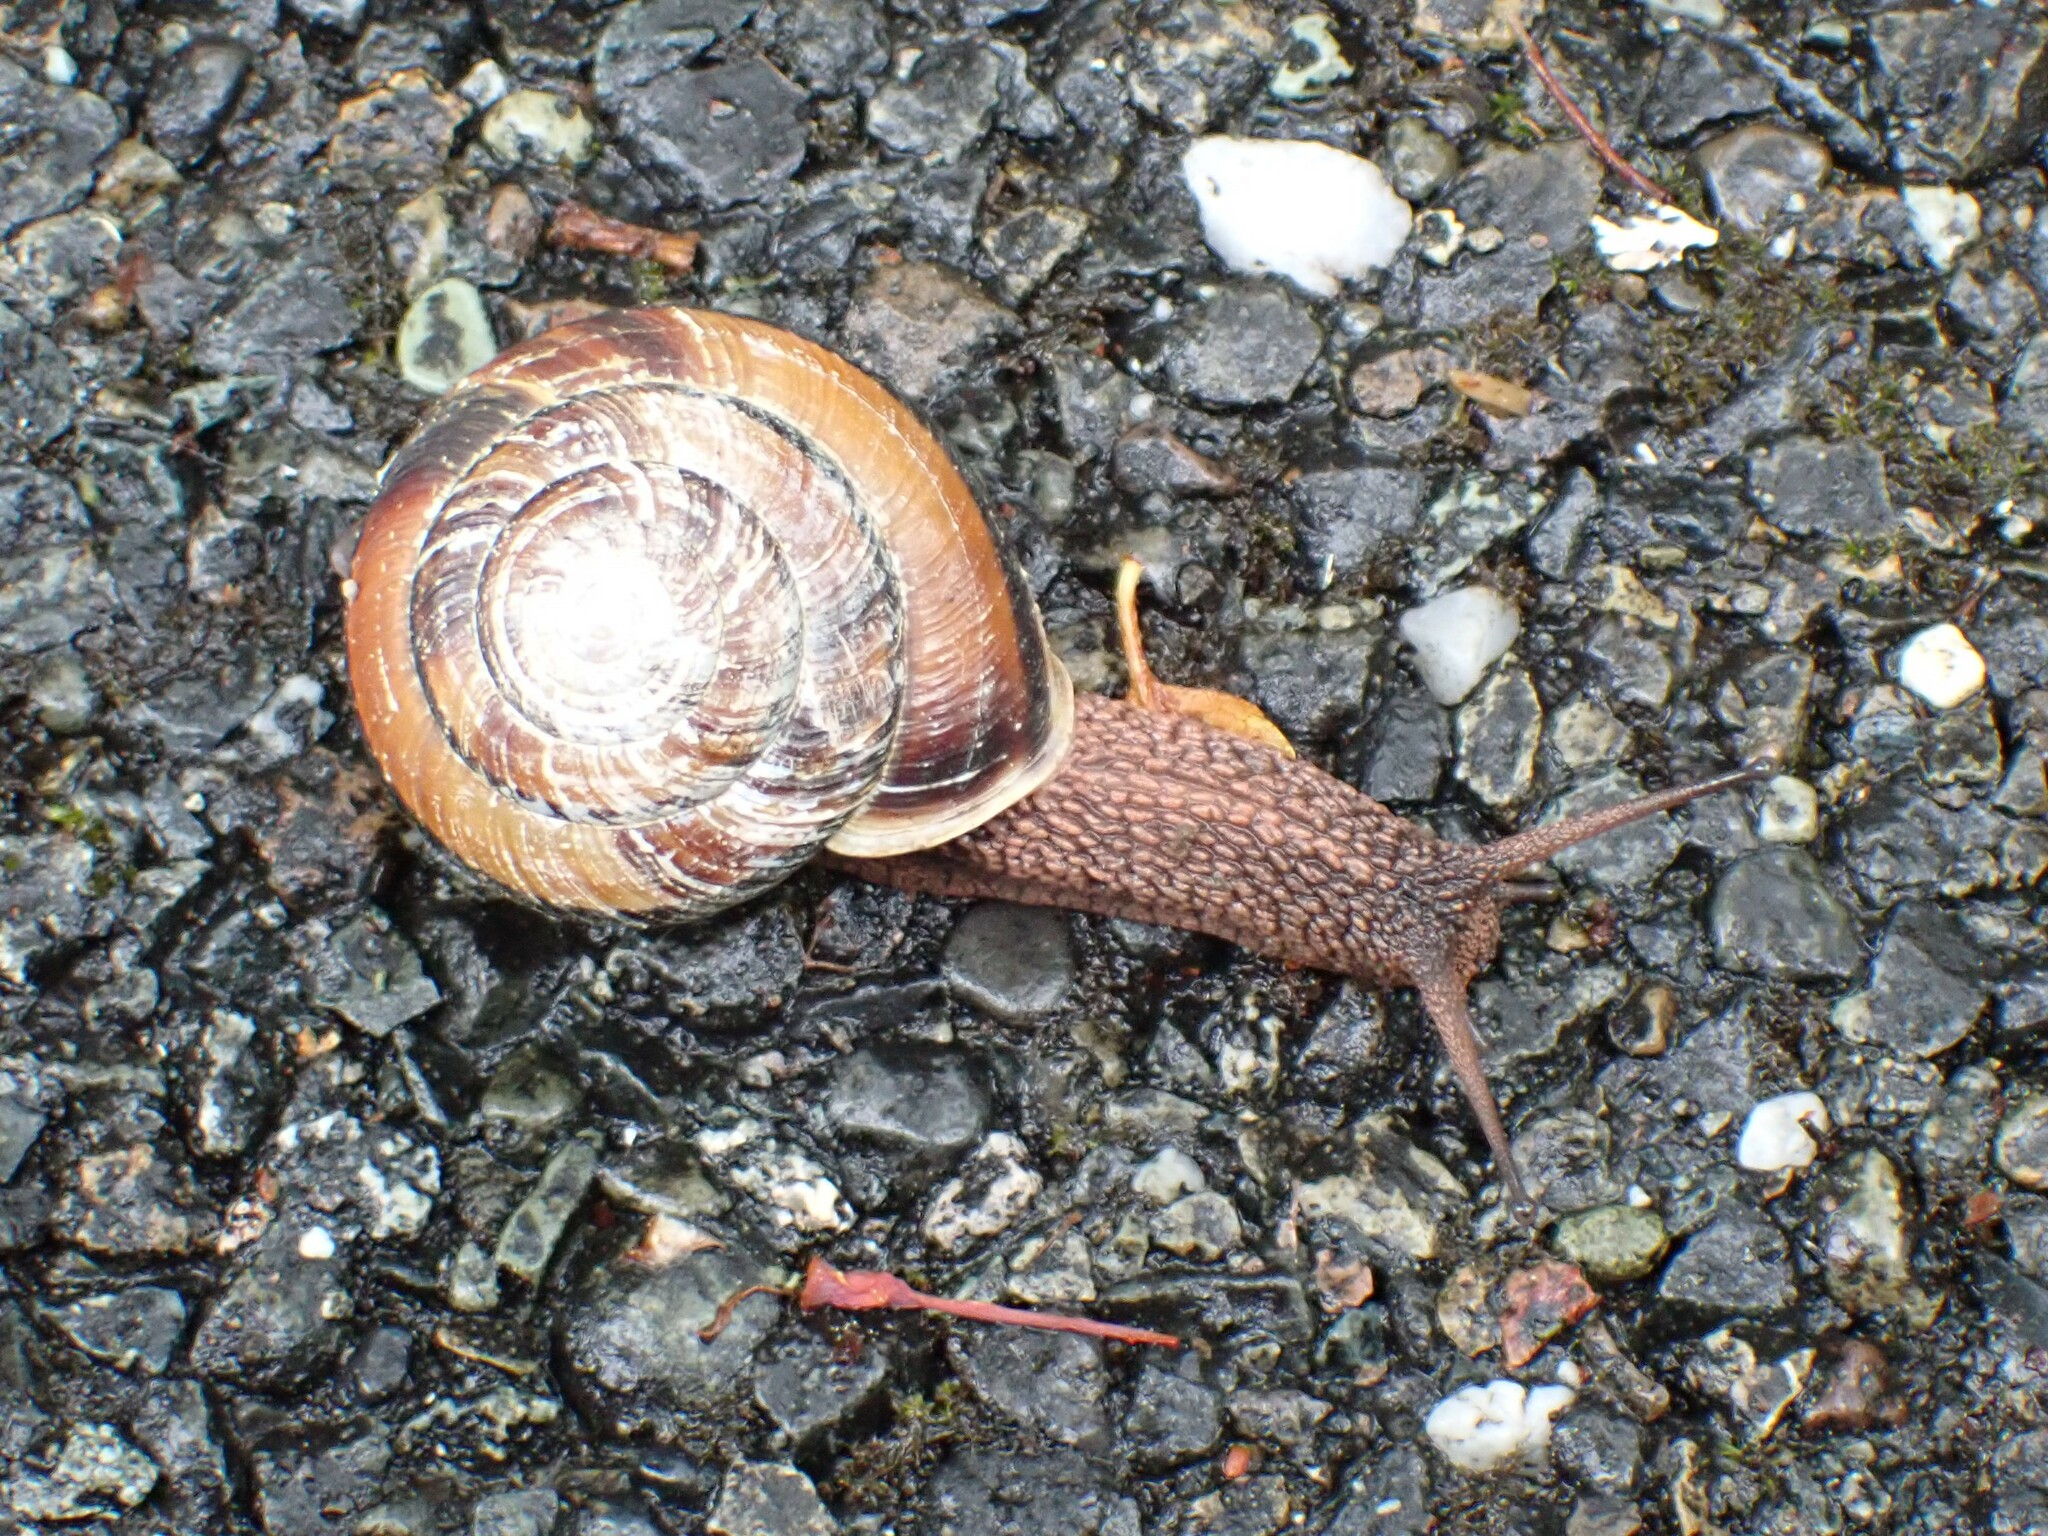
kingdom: Animalia
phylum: Mollusca
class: Gastropoda
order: Stylommatophora
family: Xanthonychidae
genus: Monadenia
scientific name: Monadenia fidelis
